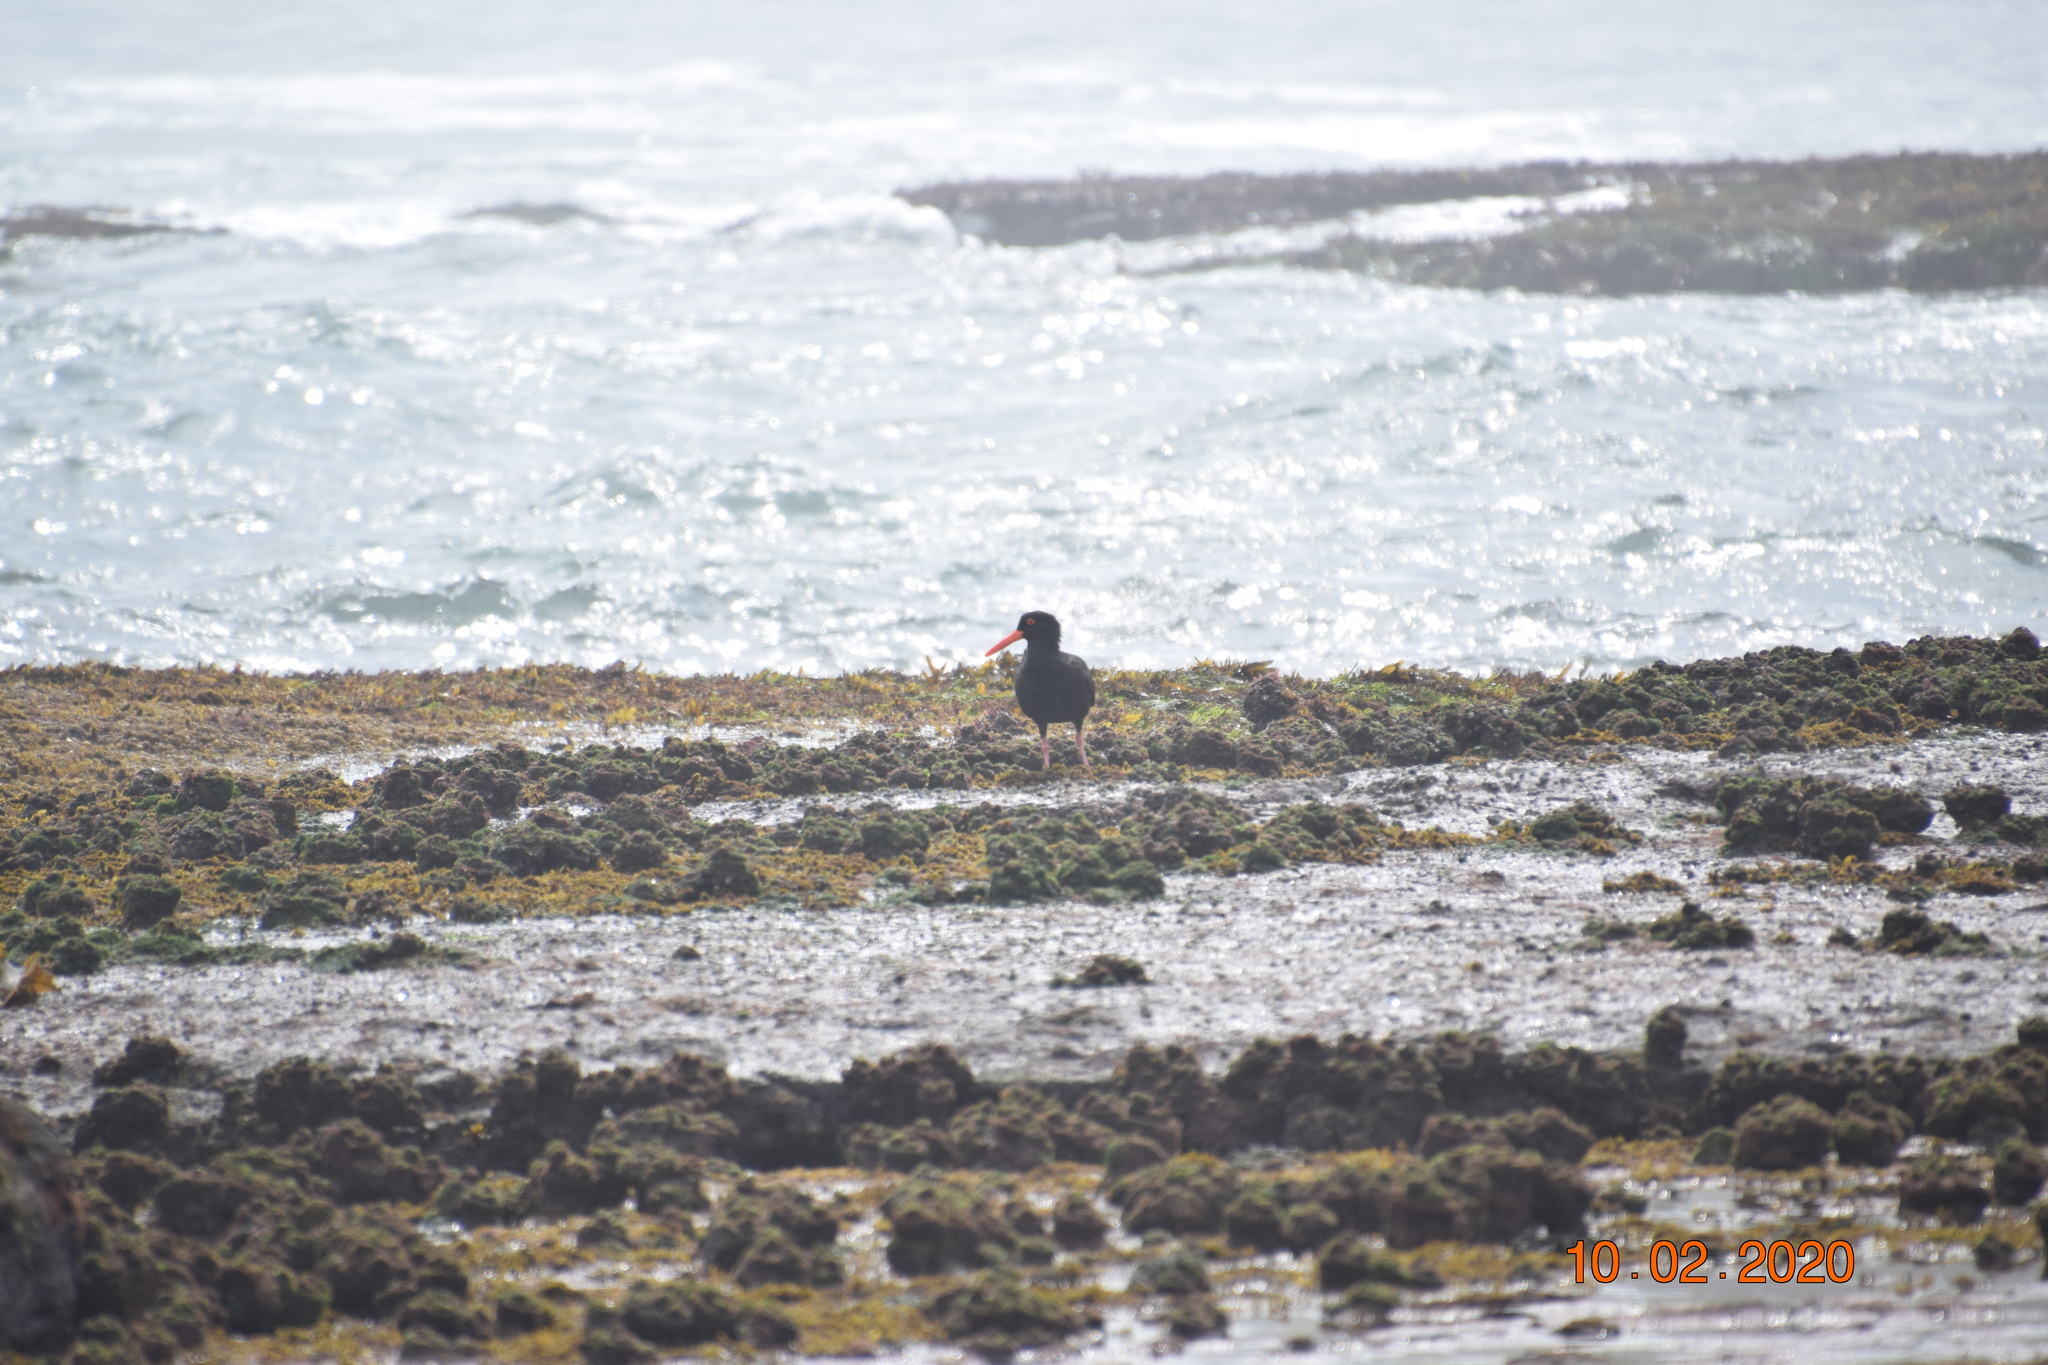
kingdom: Animalia
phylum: Chordata
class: Aves
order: Charadriiformes
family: Haematopodidae
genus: Haematopus
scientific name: Haematopus fuliginosus
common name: Sooty oystercatcher
